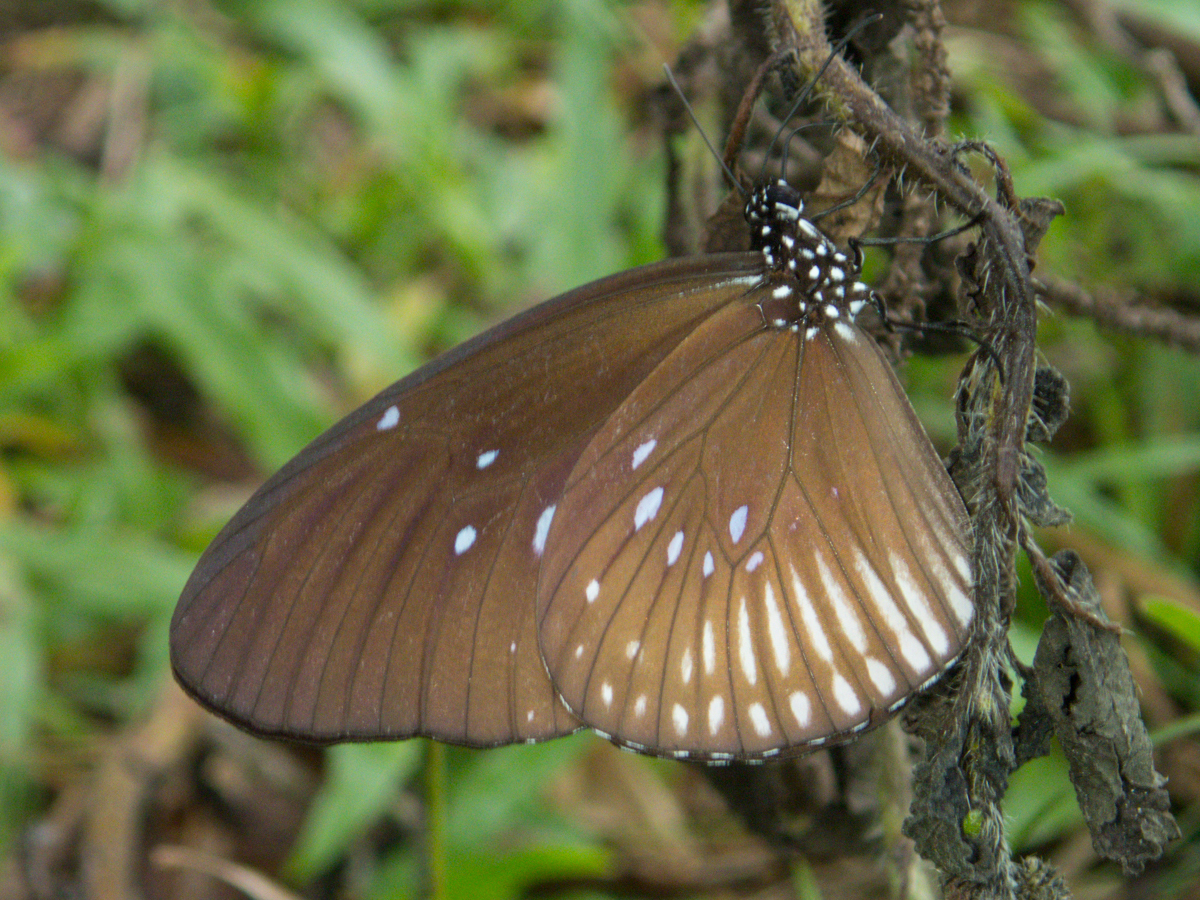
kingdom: Animalia
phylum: Arthropoda
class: Insecta
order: Lepidoptera
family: Nymphalidae
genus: Euploea
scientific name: Euploea eyndhovii
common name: Striped black crow butterfly
